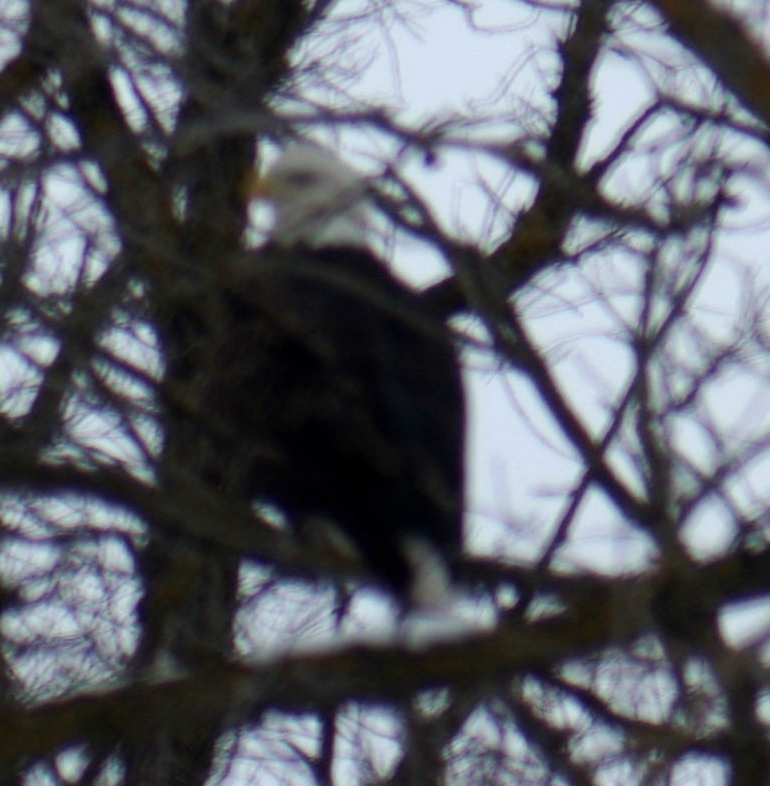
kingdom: Animalia
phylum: Chordata
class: Aves
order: Accipitriformes
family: Accipitridae
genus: Haliaeetus
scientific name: Haliaeetus leucocephalus
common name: Bald eagle
